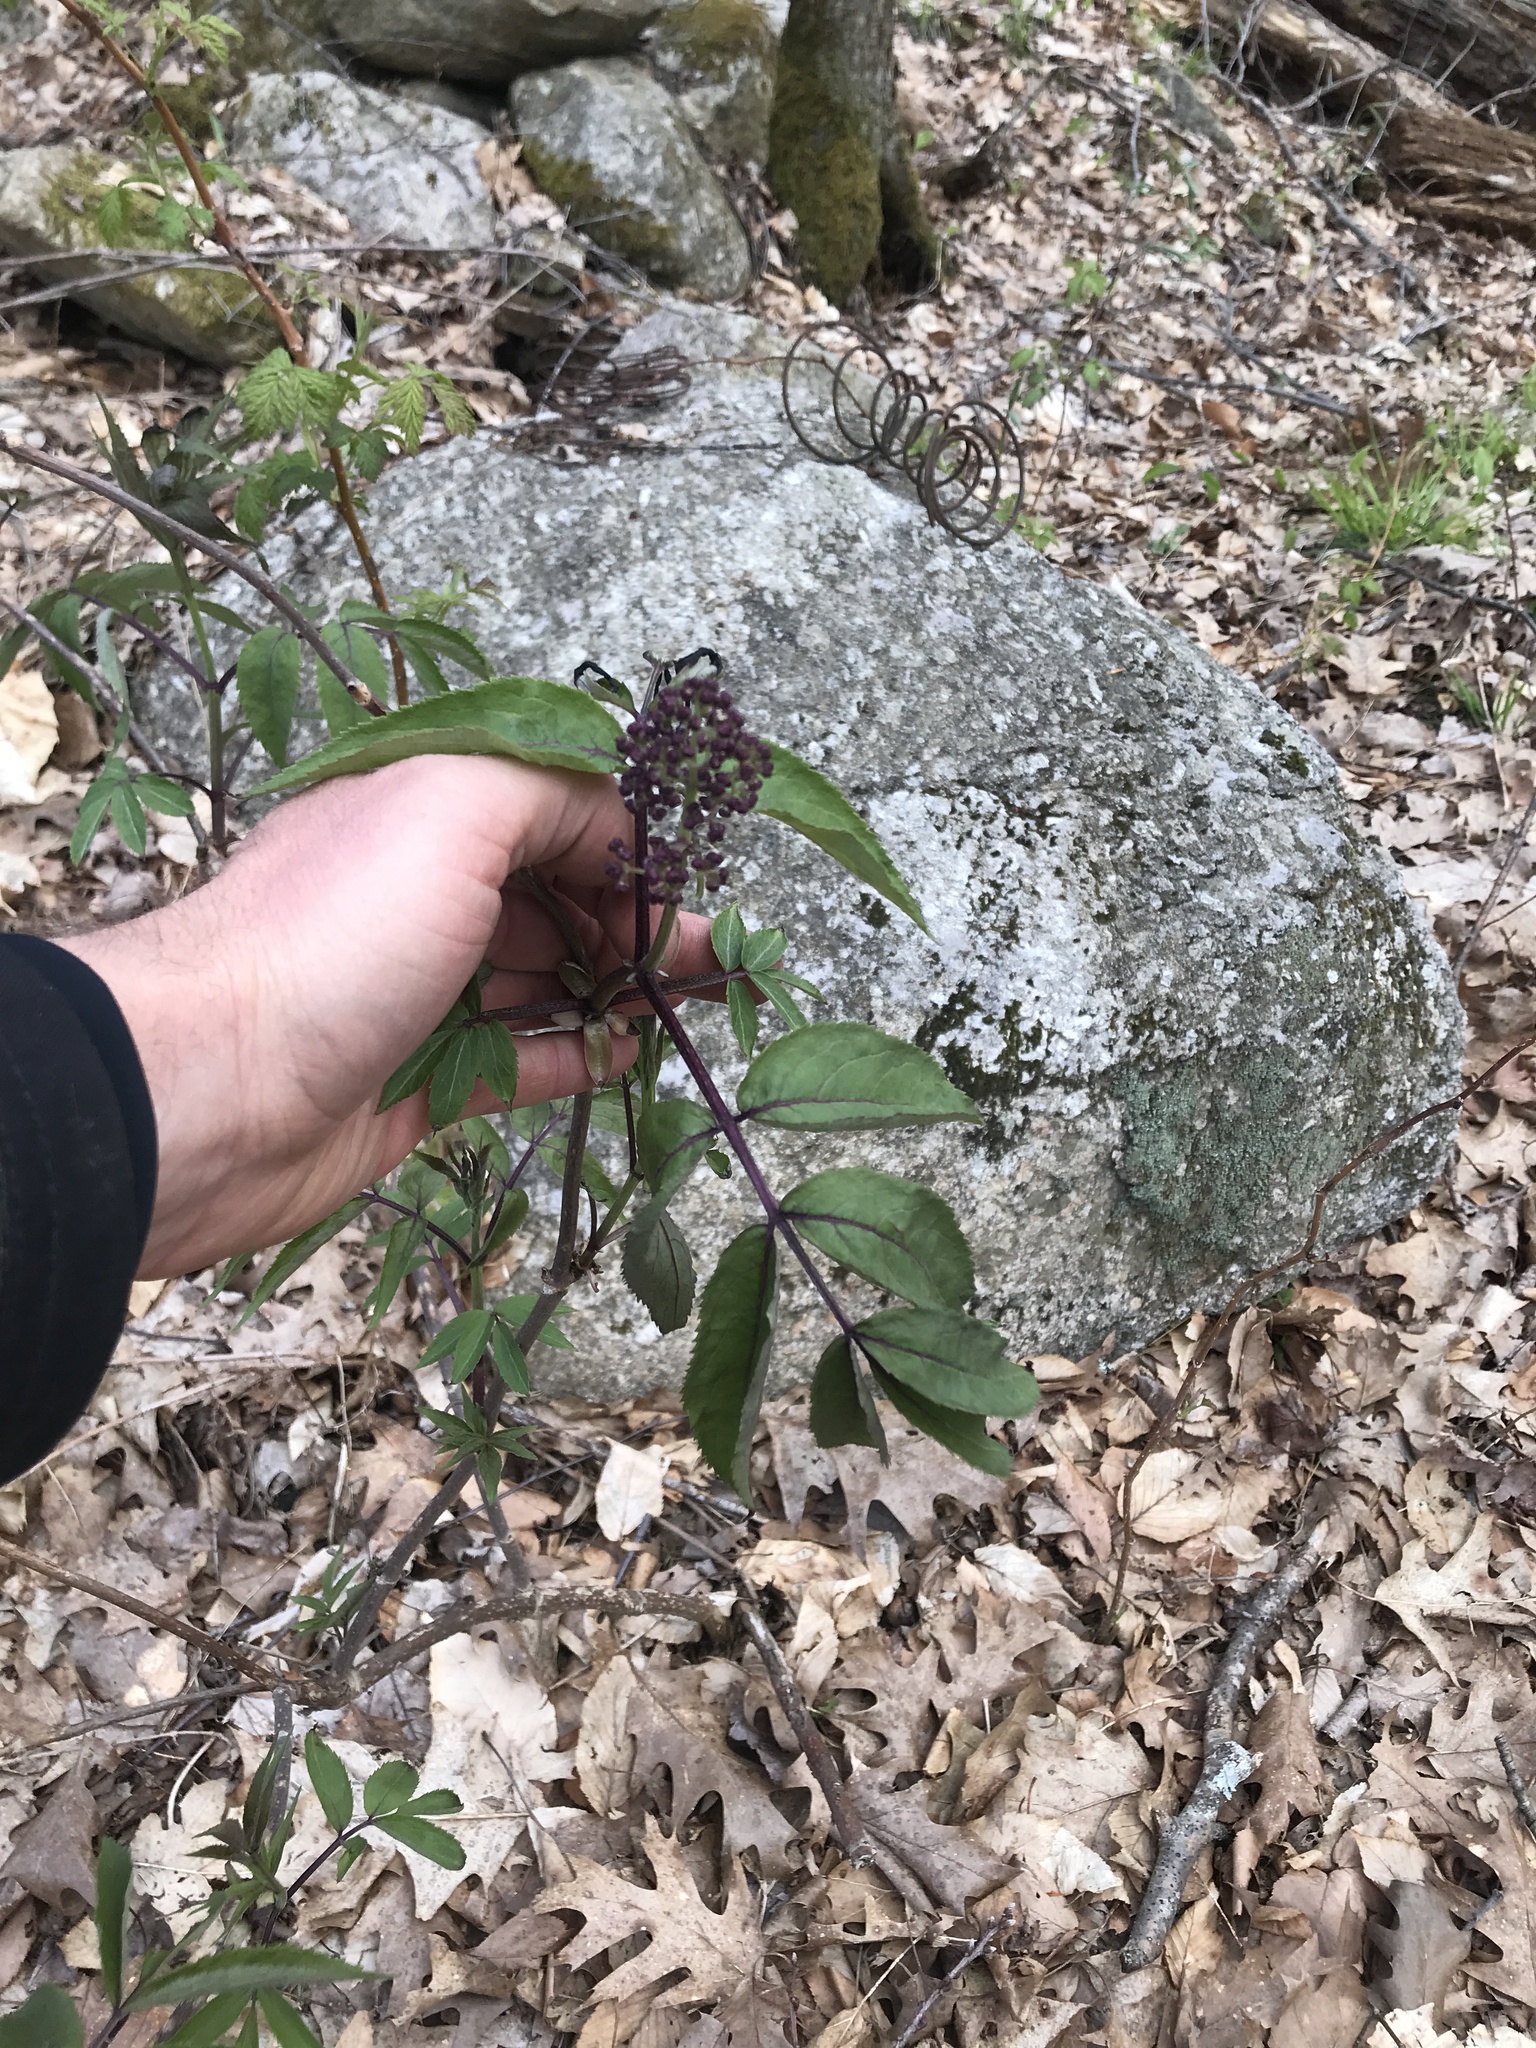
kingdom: Plantae
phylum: Tracheophyta
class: Magnoliopsida
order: Dipsacales
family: Viburnaceae
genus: Sambucus
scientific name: Sambucus racemosa
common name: Red-berried elder
